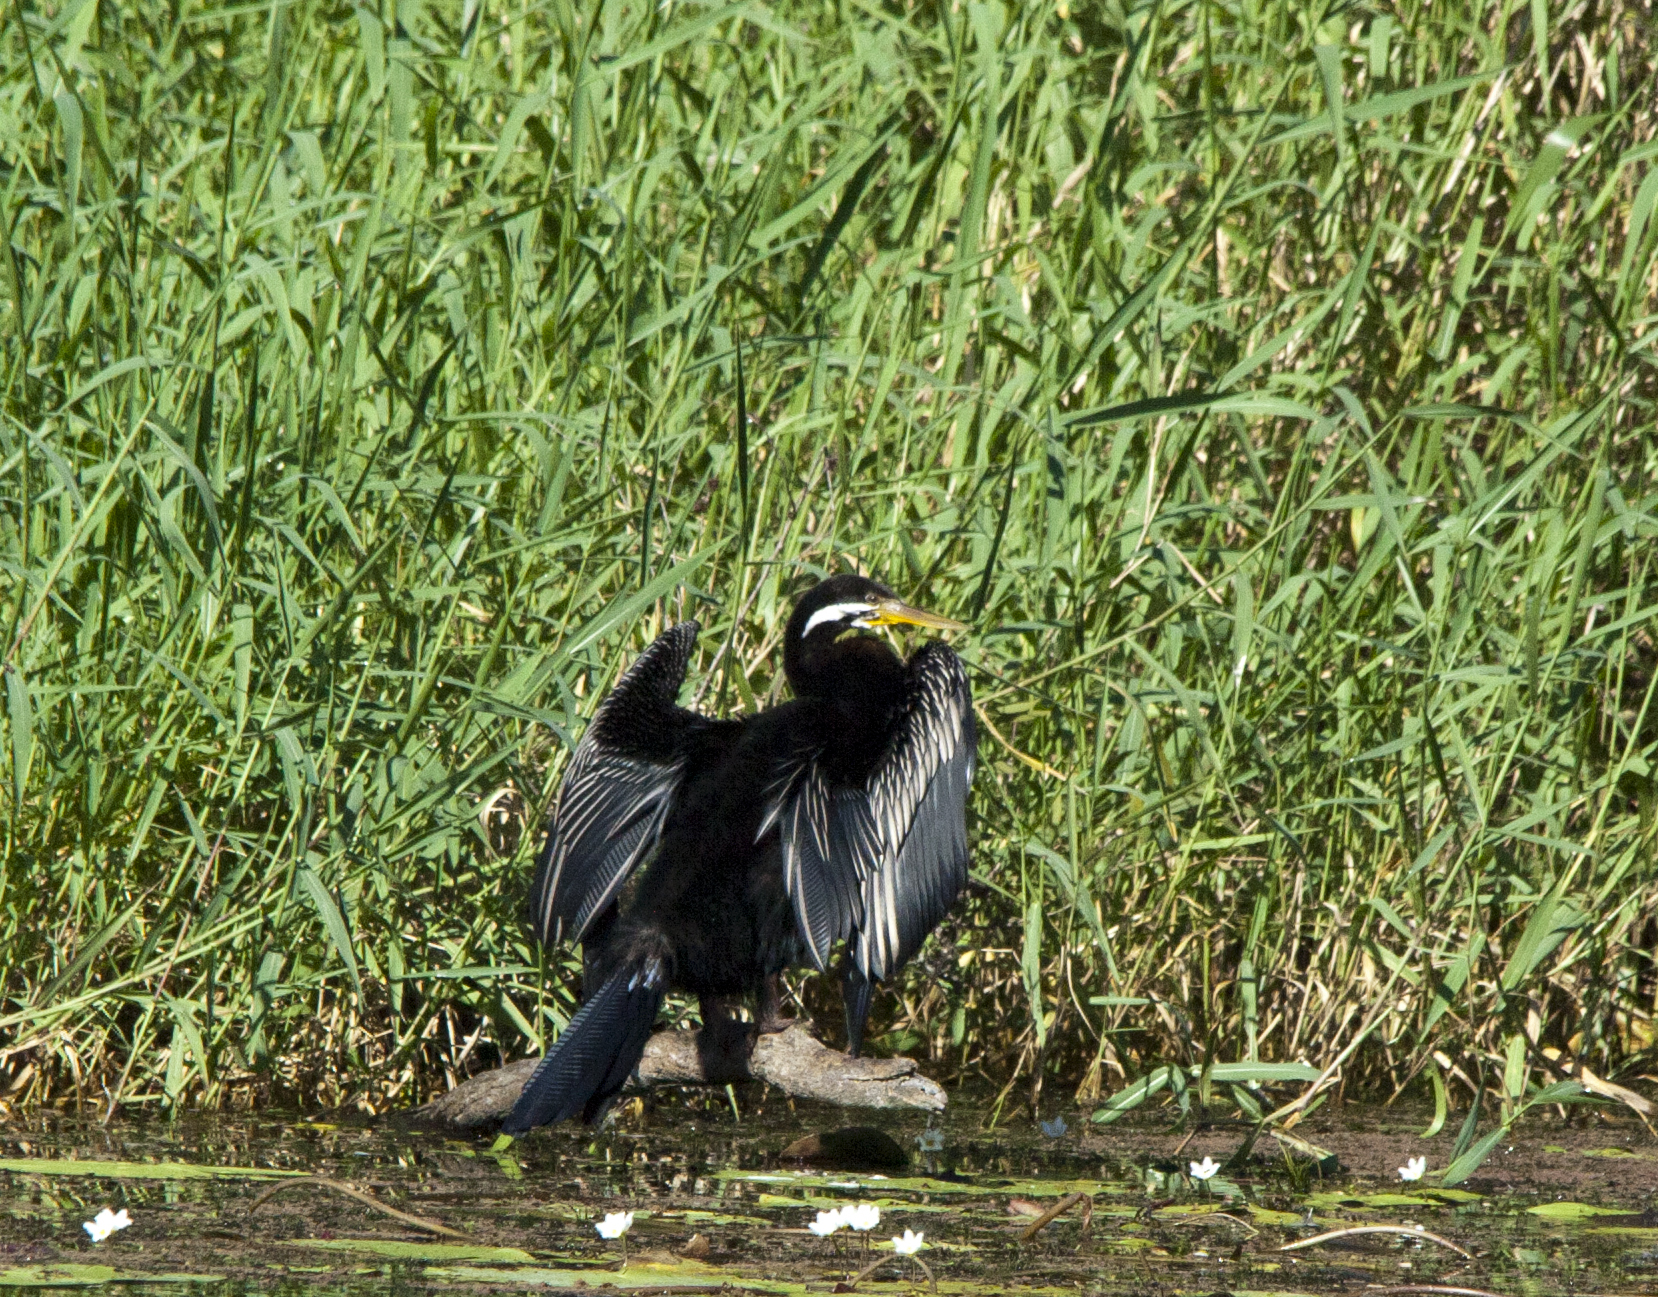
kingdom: Animalia
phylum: Chordata
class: Aves
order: Suliformes
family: Anhingidae
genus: Anhinga
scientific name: Anhinga novaehollandiae
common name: Australasian darter
